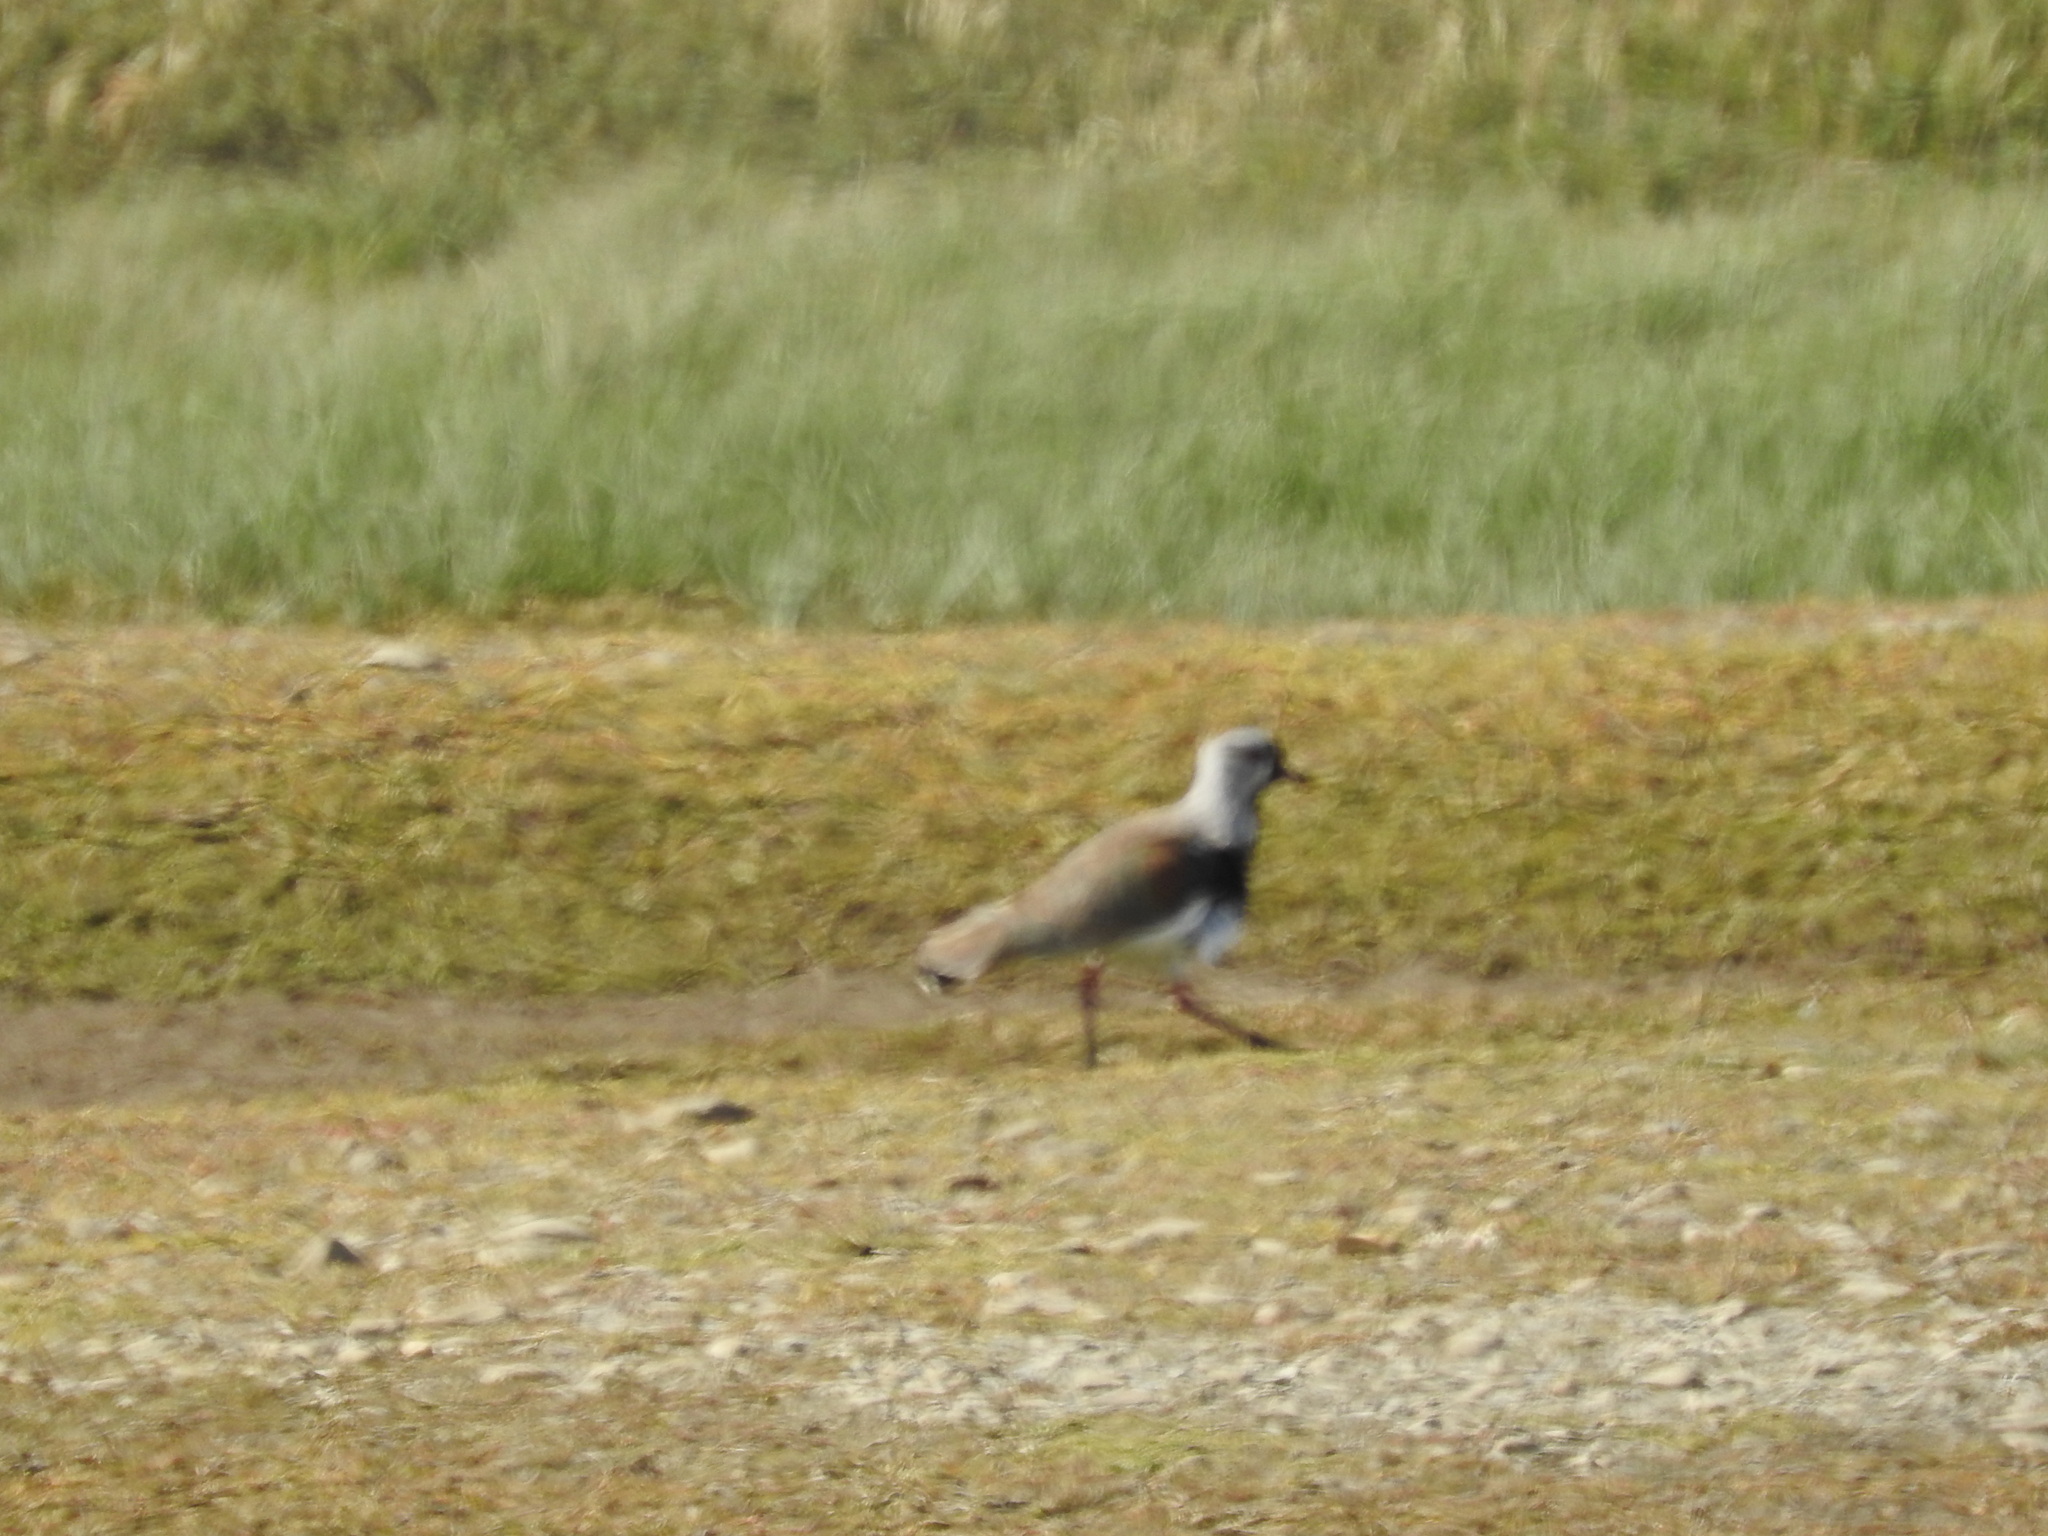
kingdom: Animalia
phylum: Chordata
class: Aves
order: Charadriiformes
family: Charadriidae
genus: Vanellus
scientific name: Vanellus chilensis
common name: Southern lapwing
